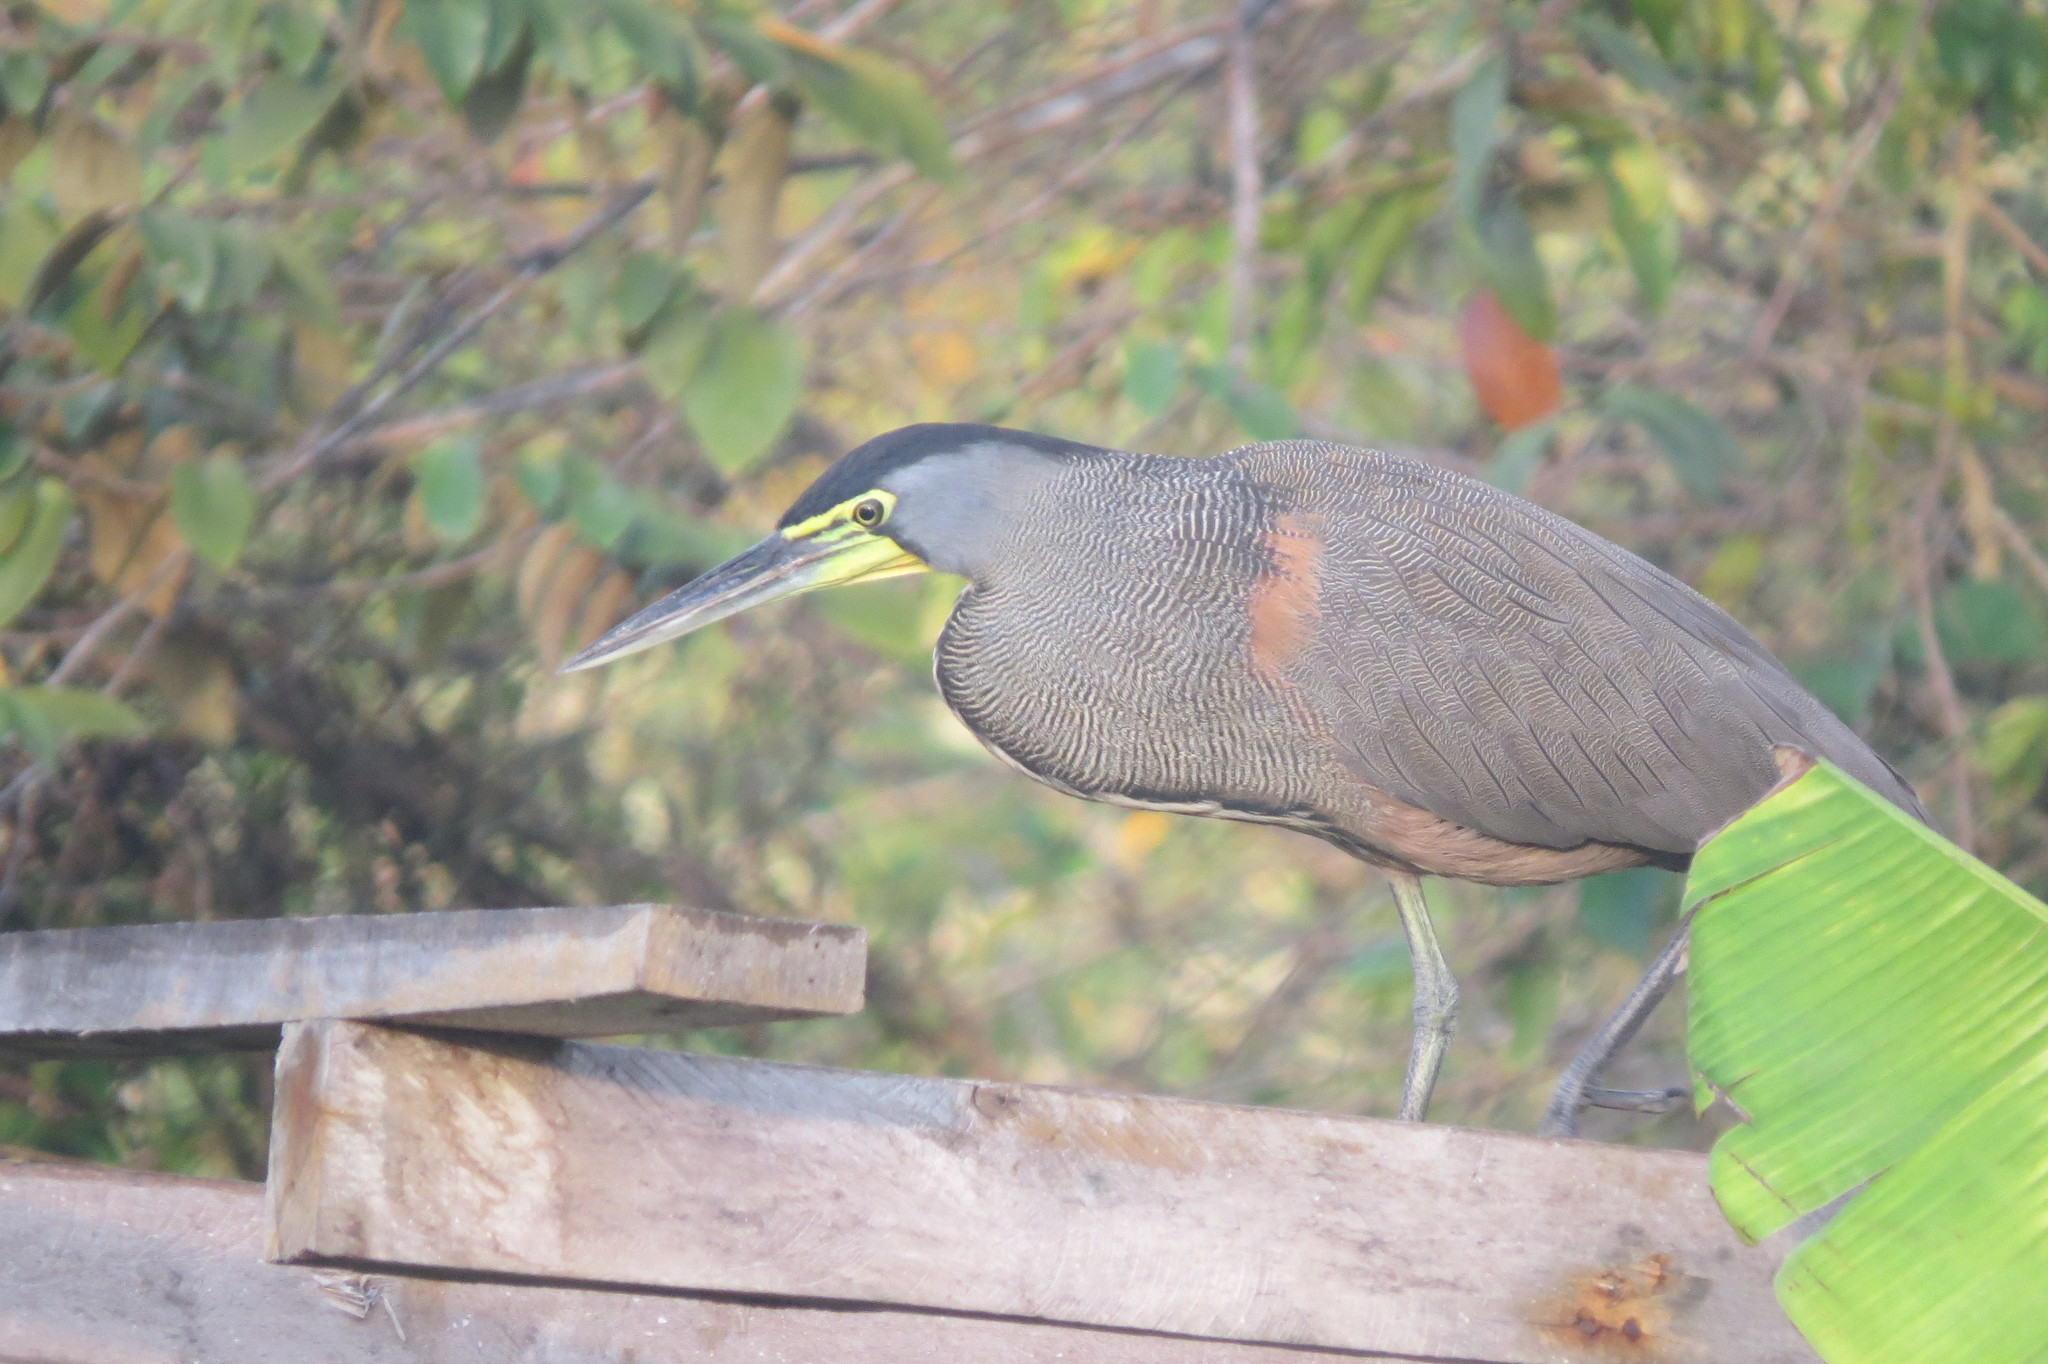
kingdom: Animalia
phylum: Chordata
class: Aves
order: Pelecaniformes
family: Ardeidae
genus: Tigrisoma
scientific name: Tigrisoma mexicanum
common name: Bare-throated tiger-heron
